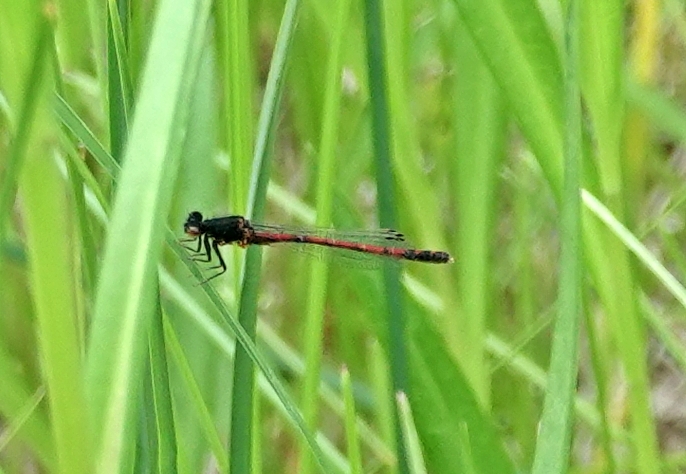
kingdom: Animalia
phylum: Arthropoda
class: Insecta
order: Odonata
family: Coenagrionidae
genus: Amphiagrion
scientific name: Amphiagrion abbreviatum
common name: Western red damsel
